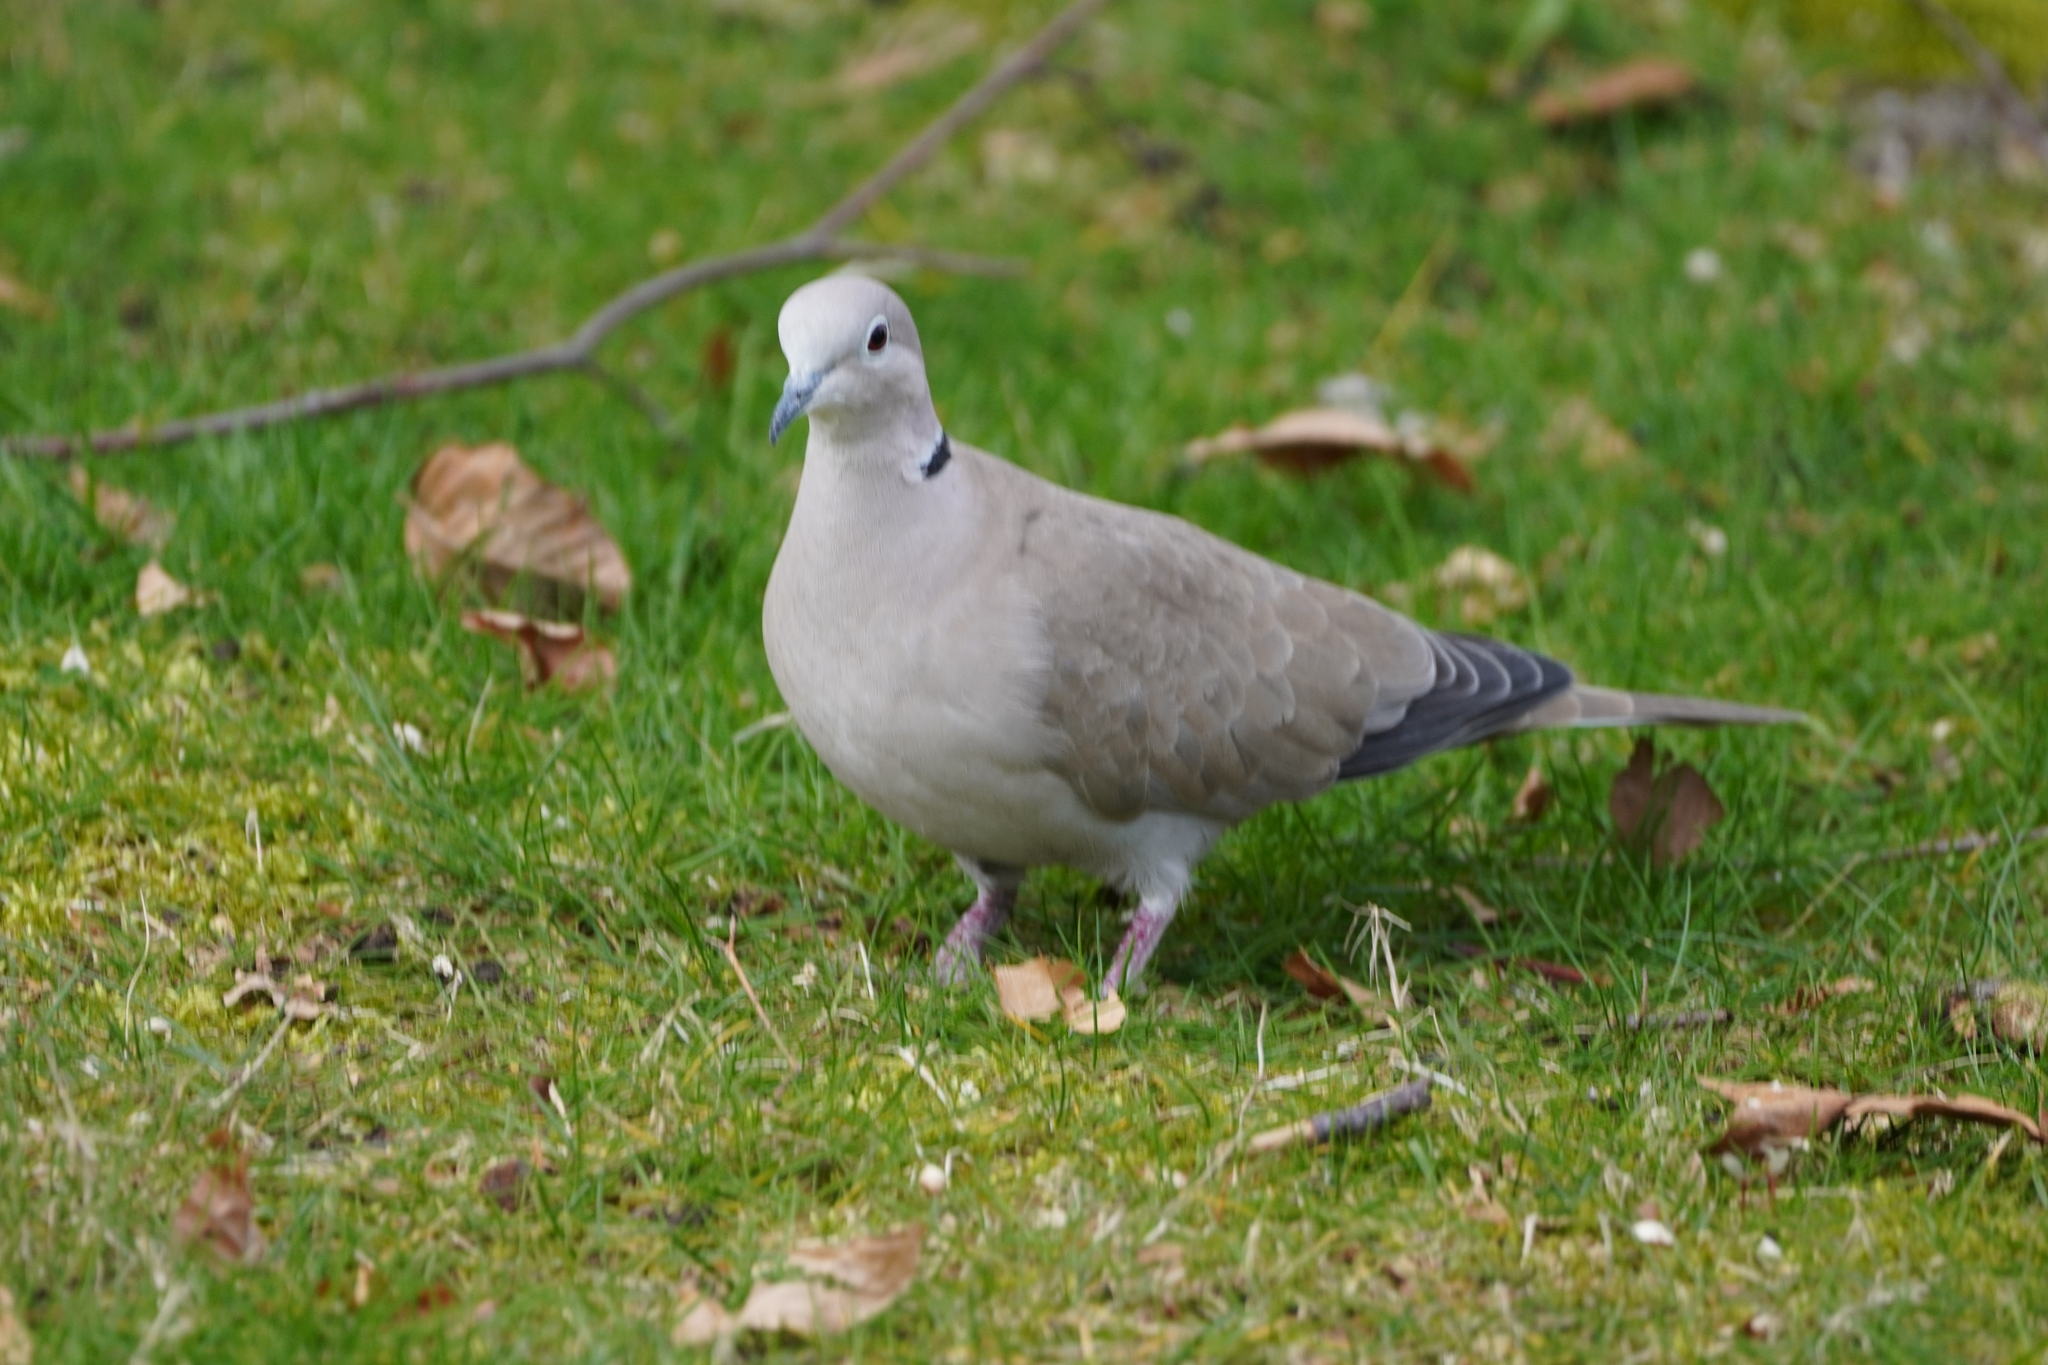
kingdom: Animalia
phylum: Chordata
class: Aves
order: Columbiformes
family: Columbidae
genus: Streptopelia
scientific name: Streptopelia decaocto
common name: Eurasian collared dove
